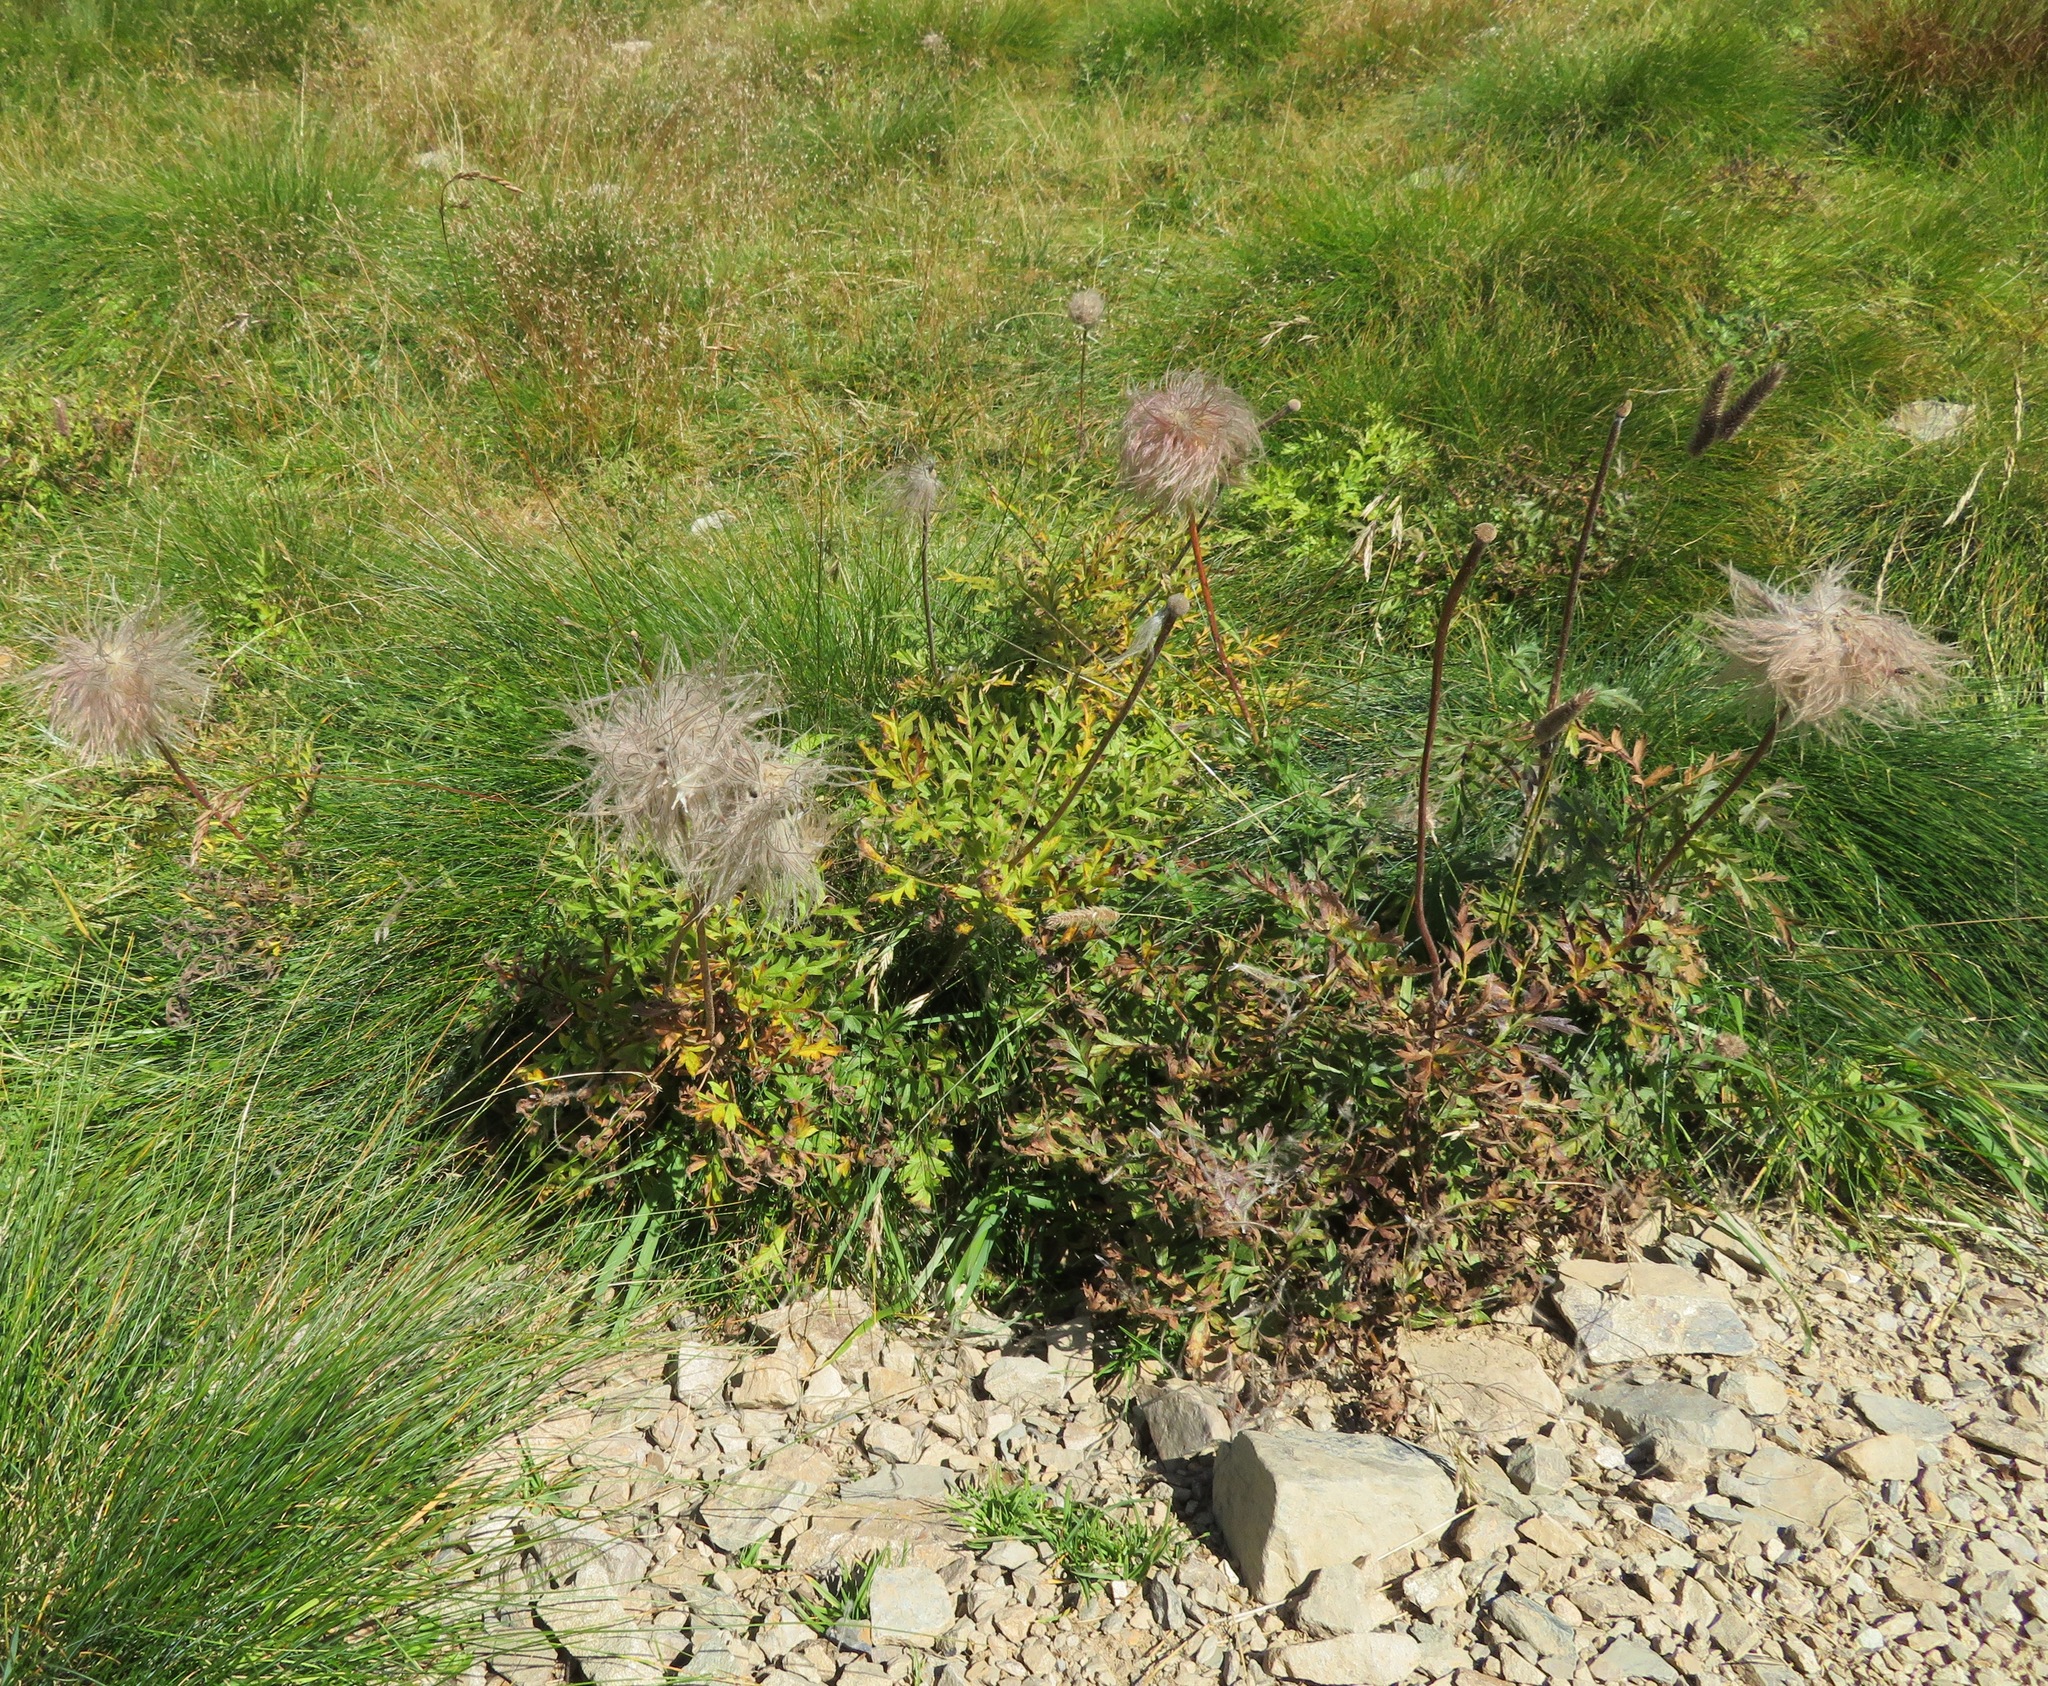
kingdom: Plantae
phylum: Tracheophyta
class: Magnoliopsida
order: Ranunculales
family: Ranunculaceae
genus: Pulsatilla
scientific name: Pulsatilla alpina
